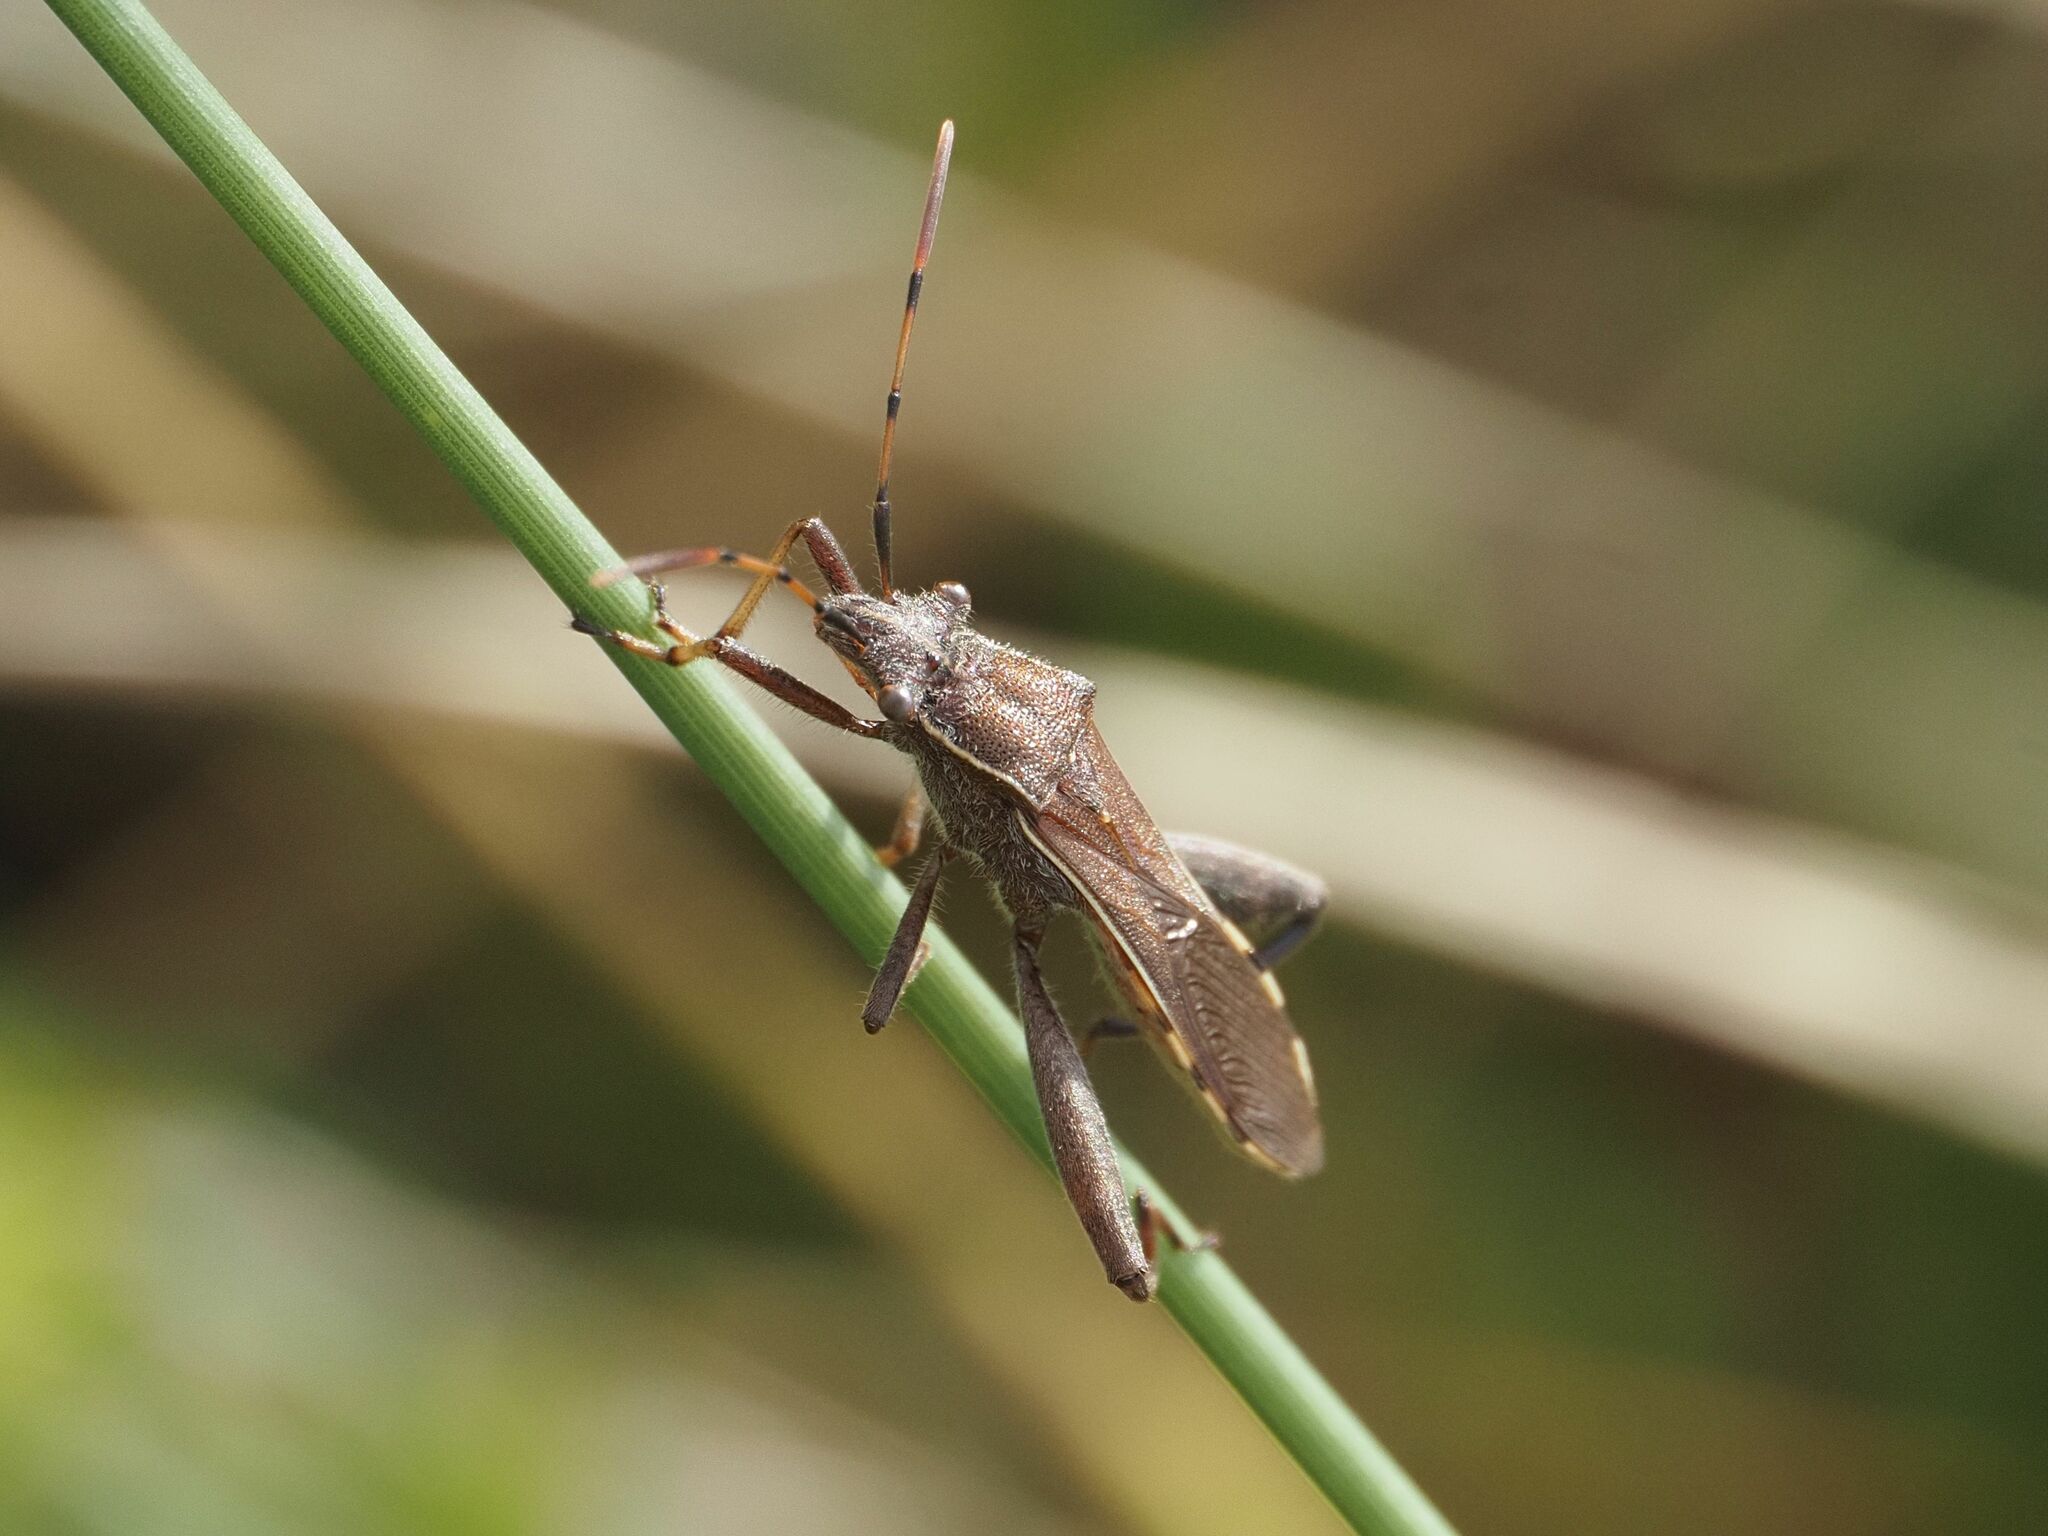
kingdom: Animalia
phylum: Arthropoda
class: Insecta
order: Hemiptera
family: Alydidae
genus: Camptopus
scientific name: Camptopus lateralis
